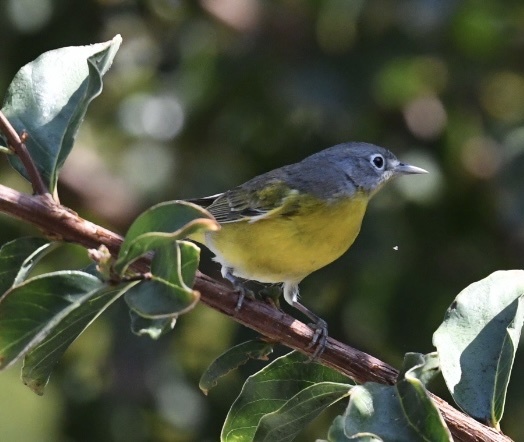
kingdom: Animalia
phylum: Chordata
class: Aves
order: Passeriformes
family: Parulidae
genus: Leiothlypis
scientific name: Leiothlypis ruficapilla
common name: Nashville warbler
